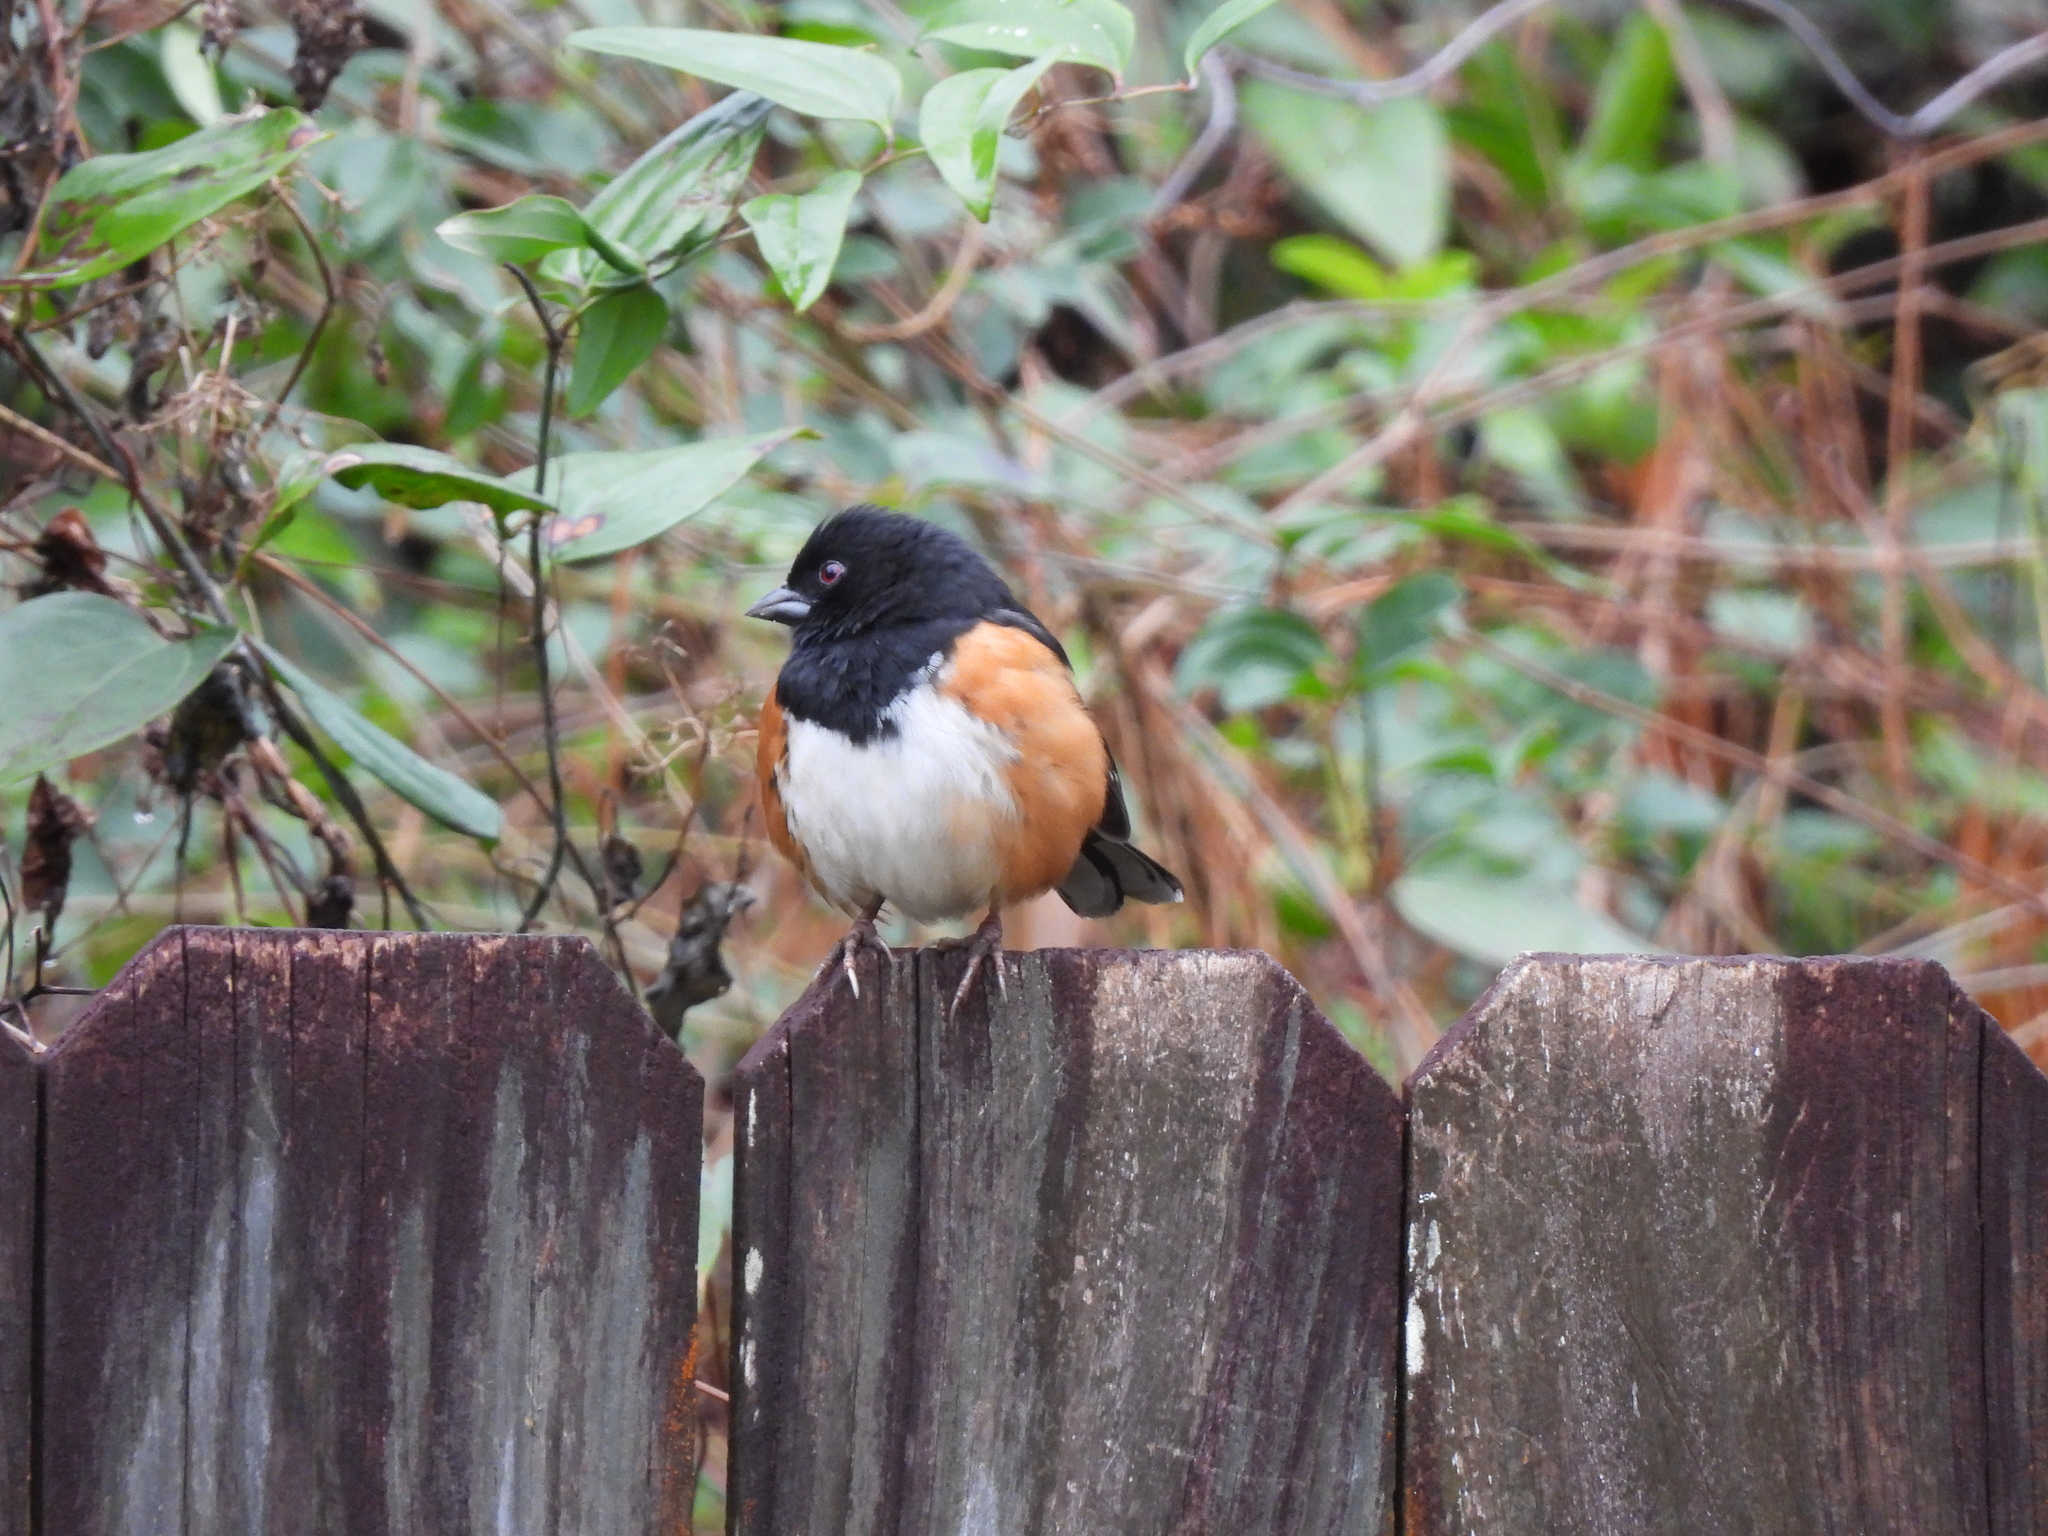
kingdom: Animalia
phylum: Chordata
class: Aves
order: Passeriformes
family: Passerellidae
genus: Pipilo
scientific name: Pipilo erythrophthalmus
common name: Eastern towhee
